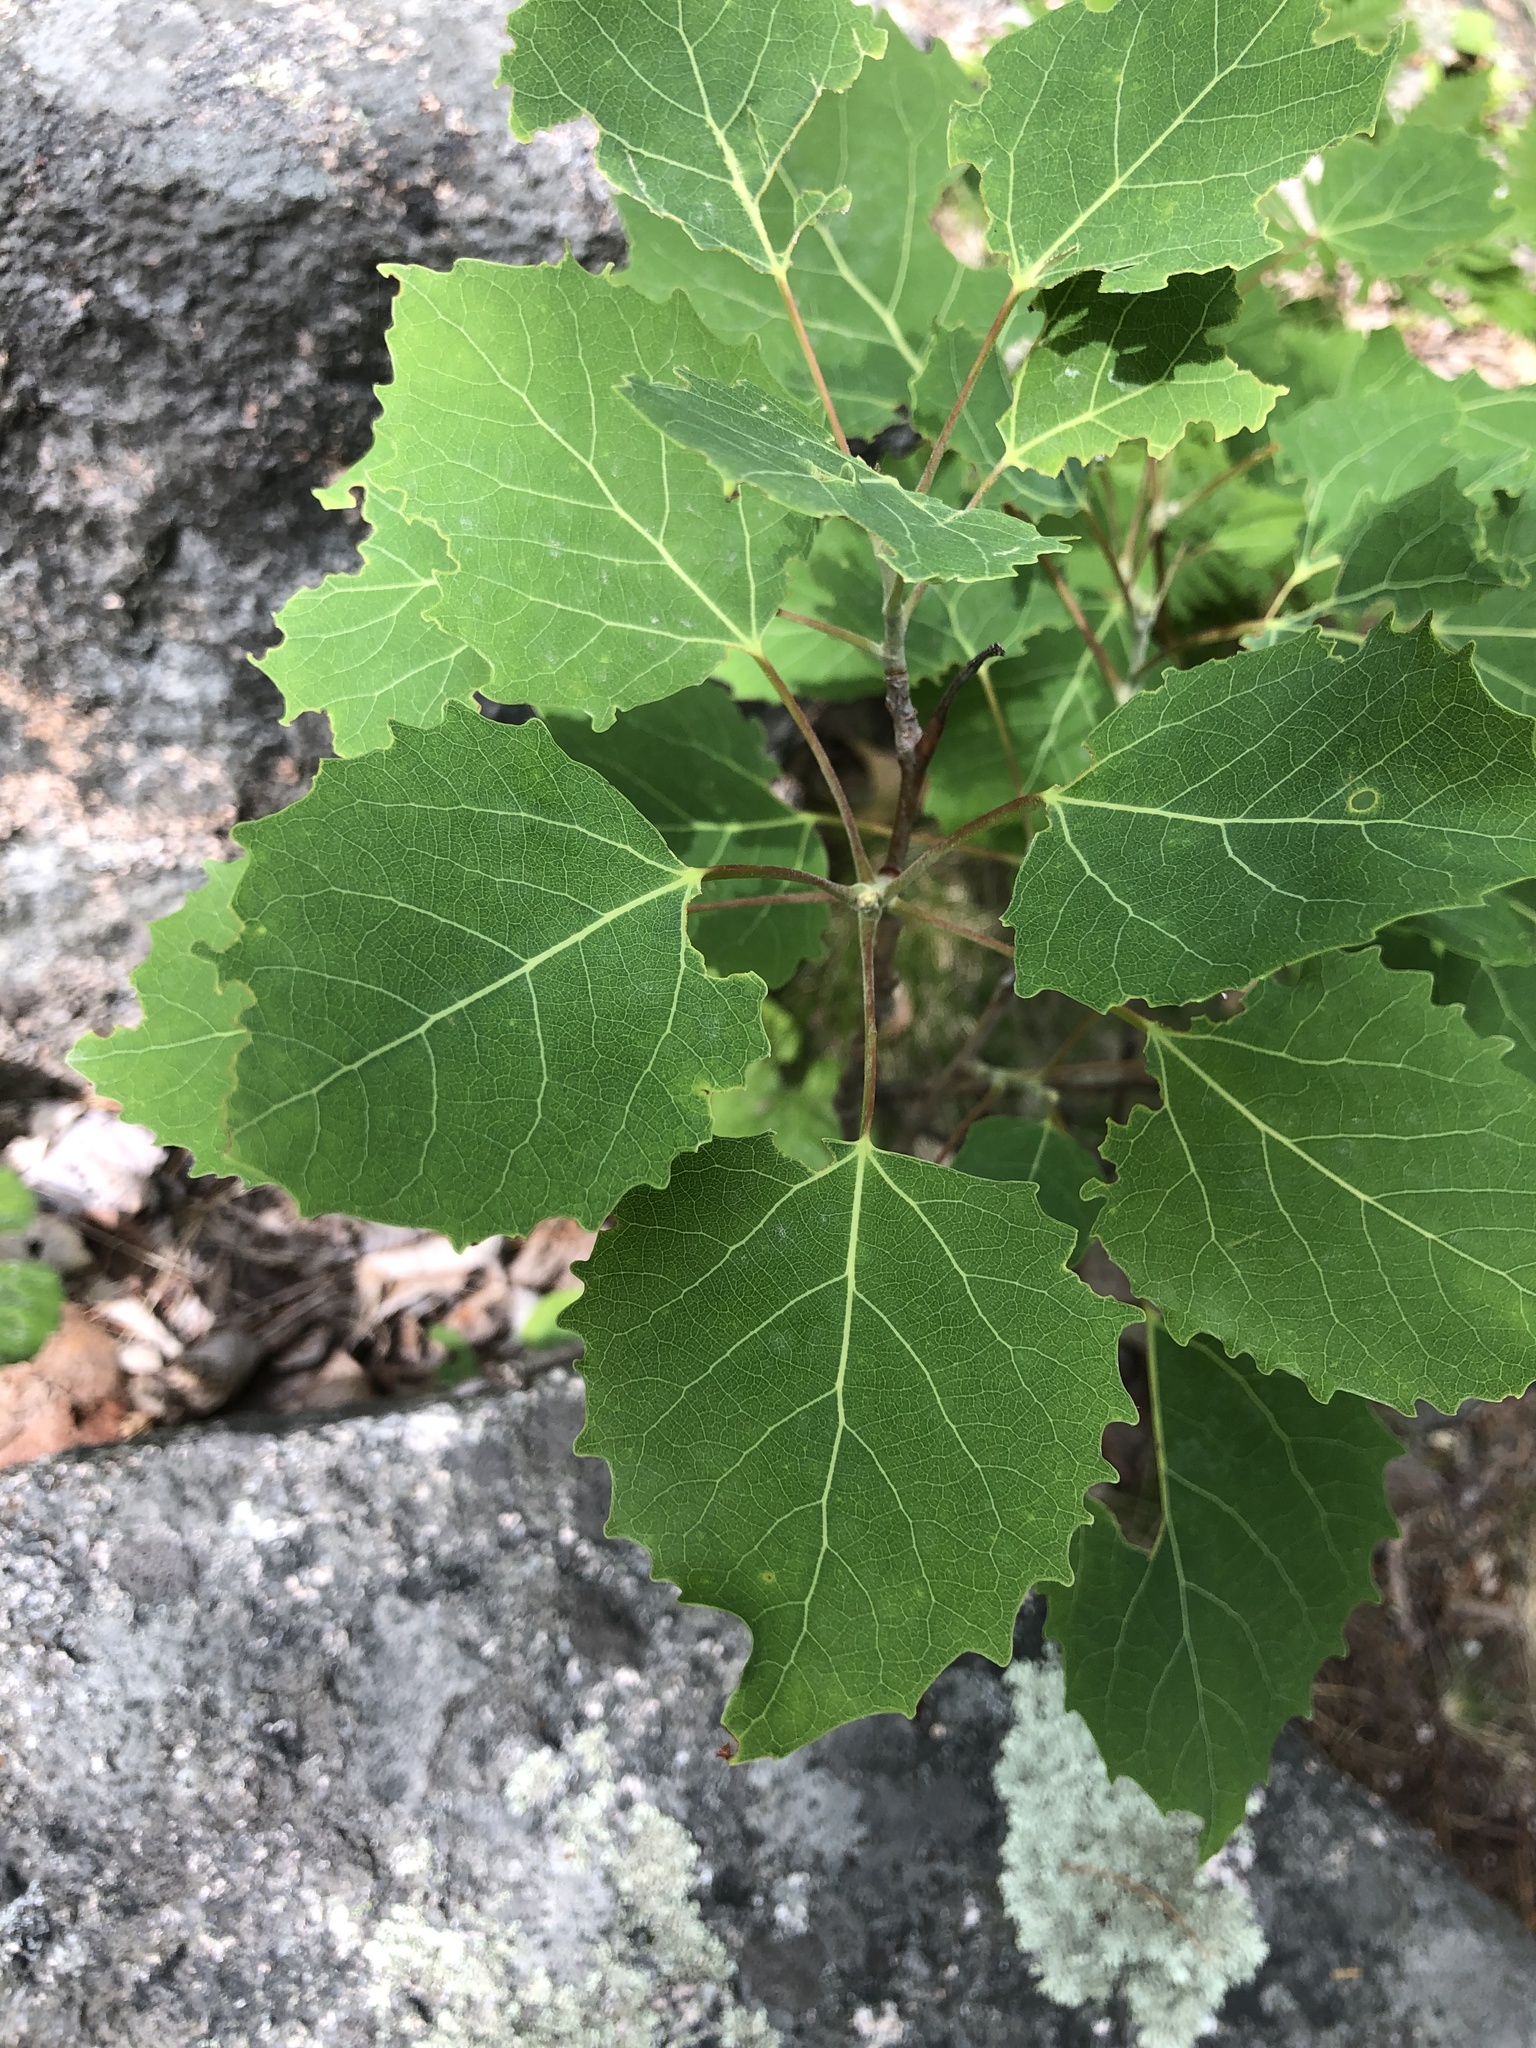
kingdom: Plantae
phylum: Tracheophyta
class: Magnoliopsida
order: Malpighiales
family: Salicaceae
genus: Populus
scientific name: Populus grandidentata
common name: Bigtooth aspen
